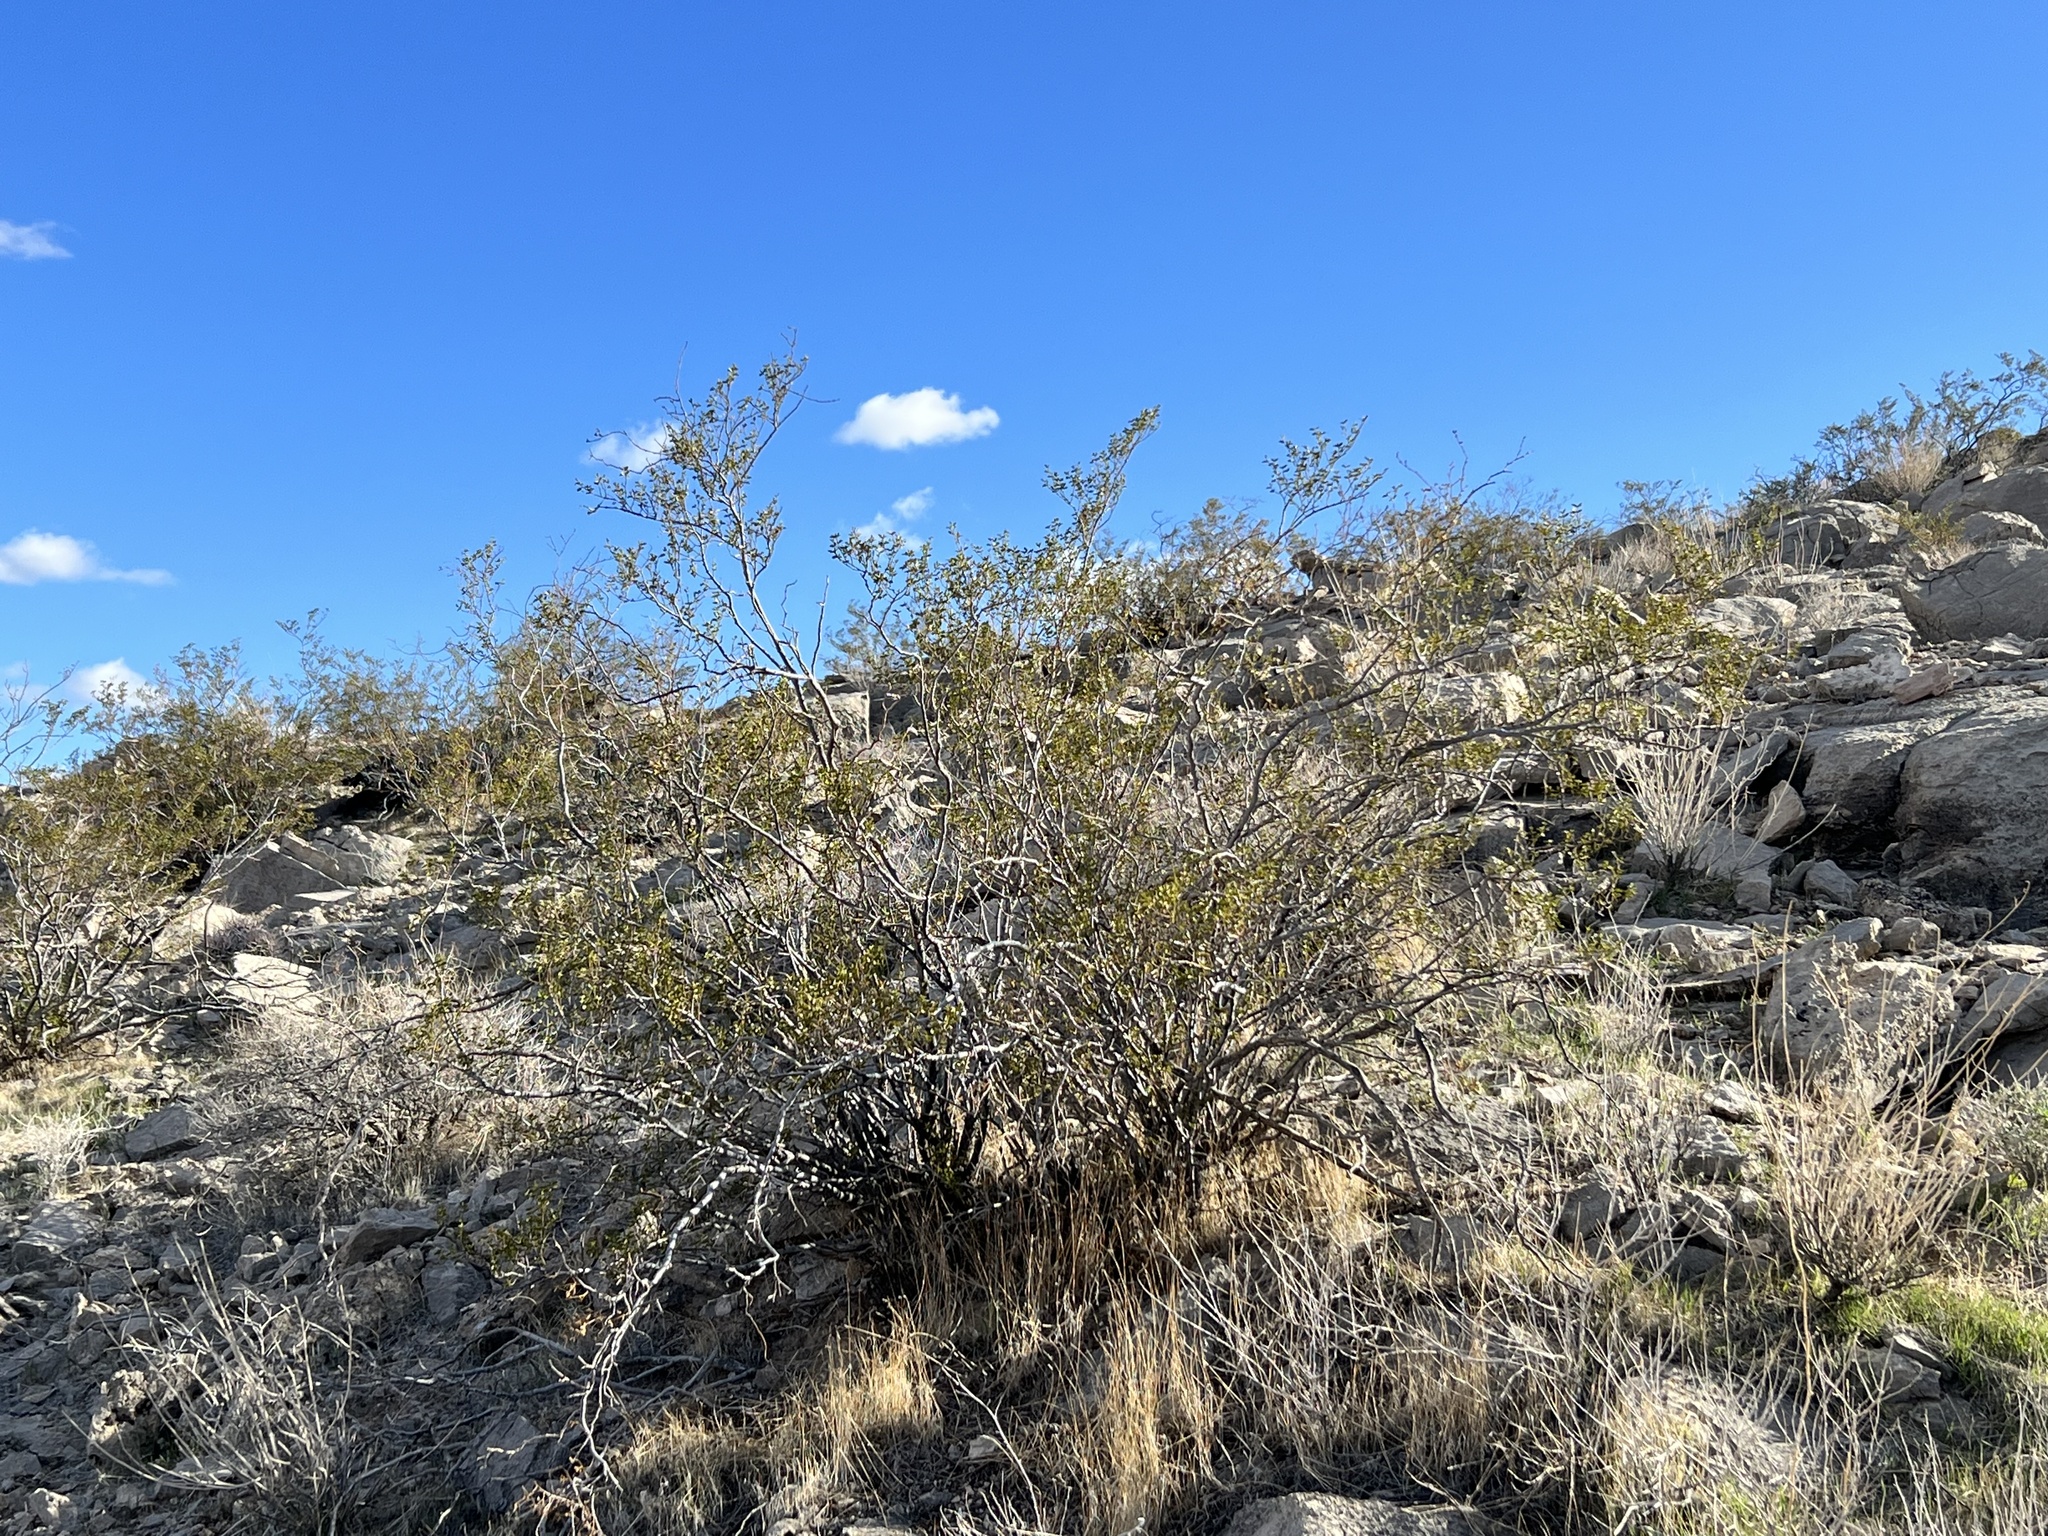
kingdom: Plantae
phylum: Tracheophyta
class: Magnoliopsida
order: Zygophyllales
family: Zygophyllaceae
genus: Larrea
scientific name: Larrea tridentata
